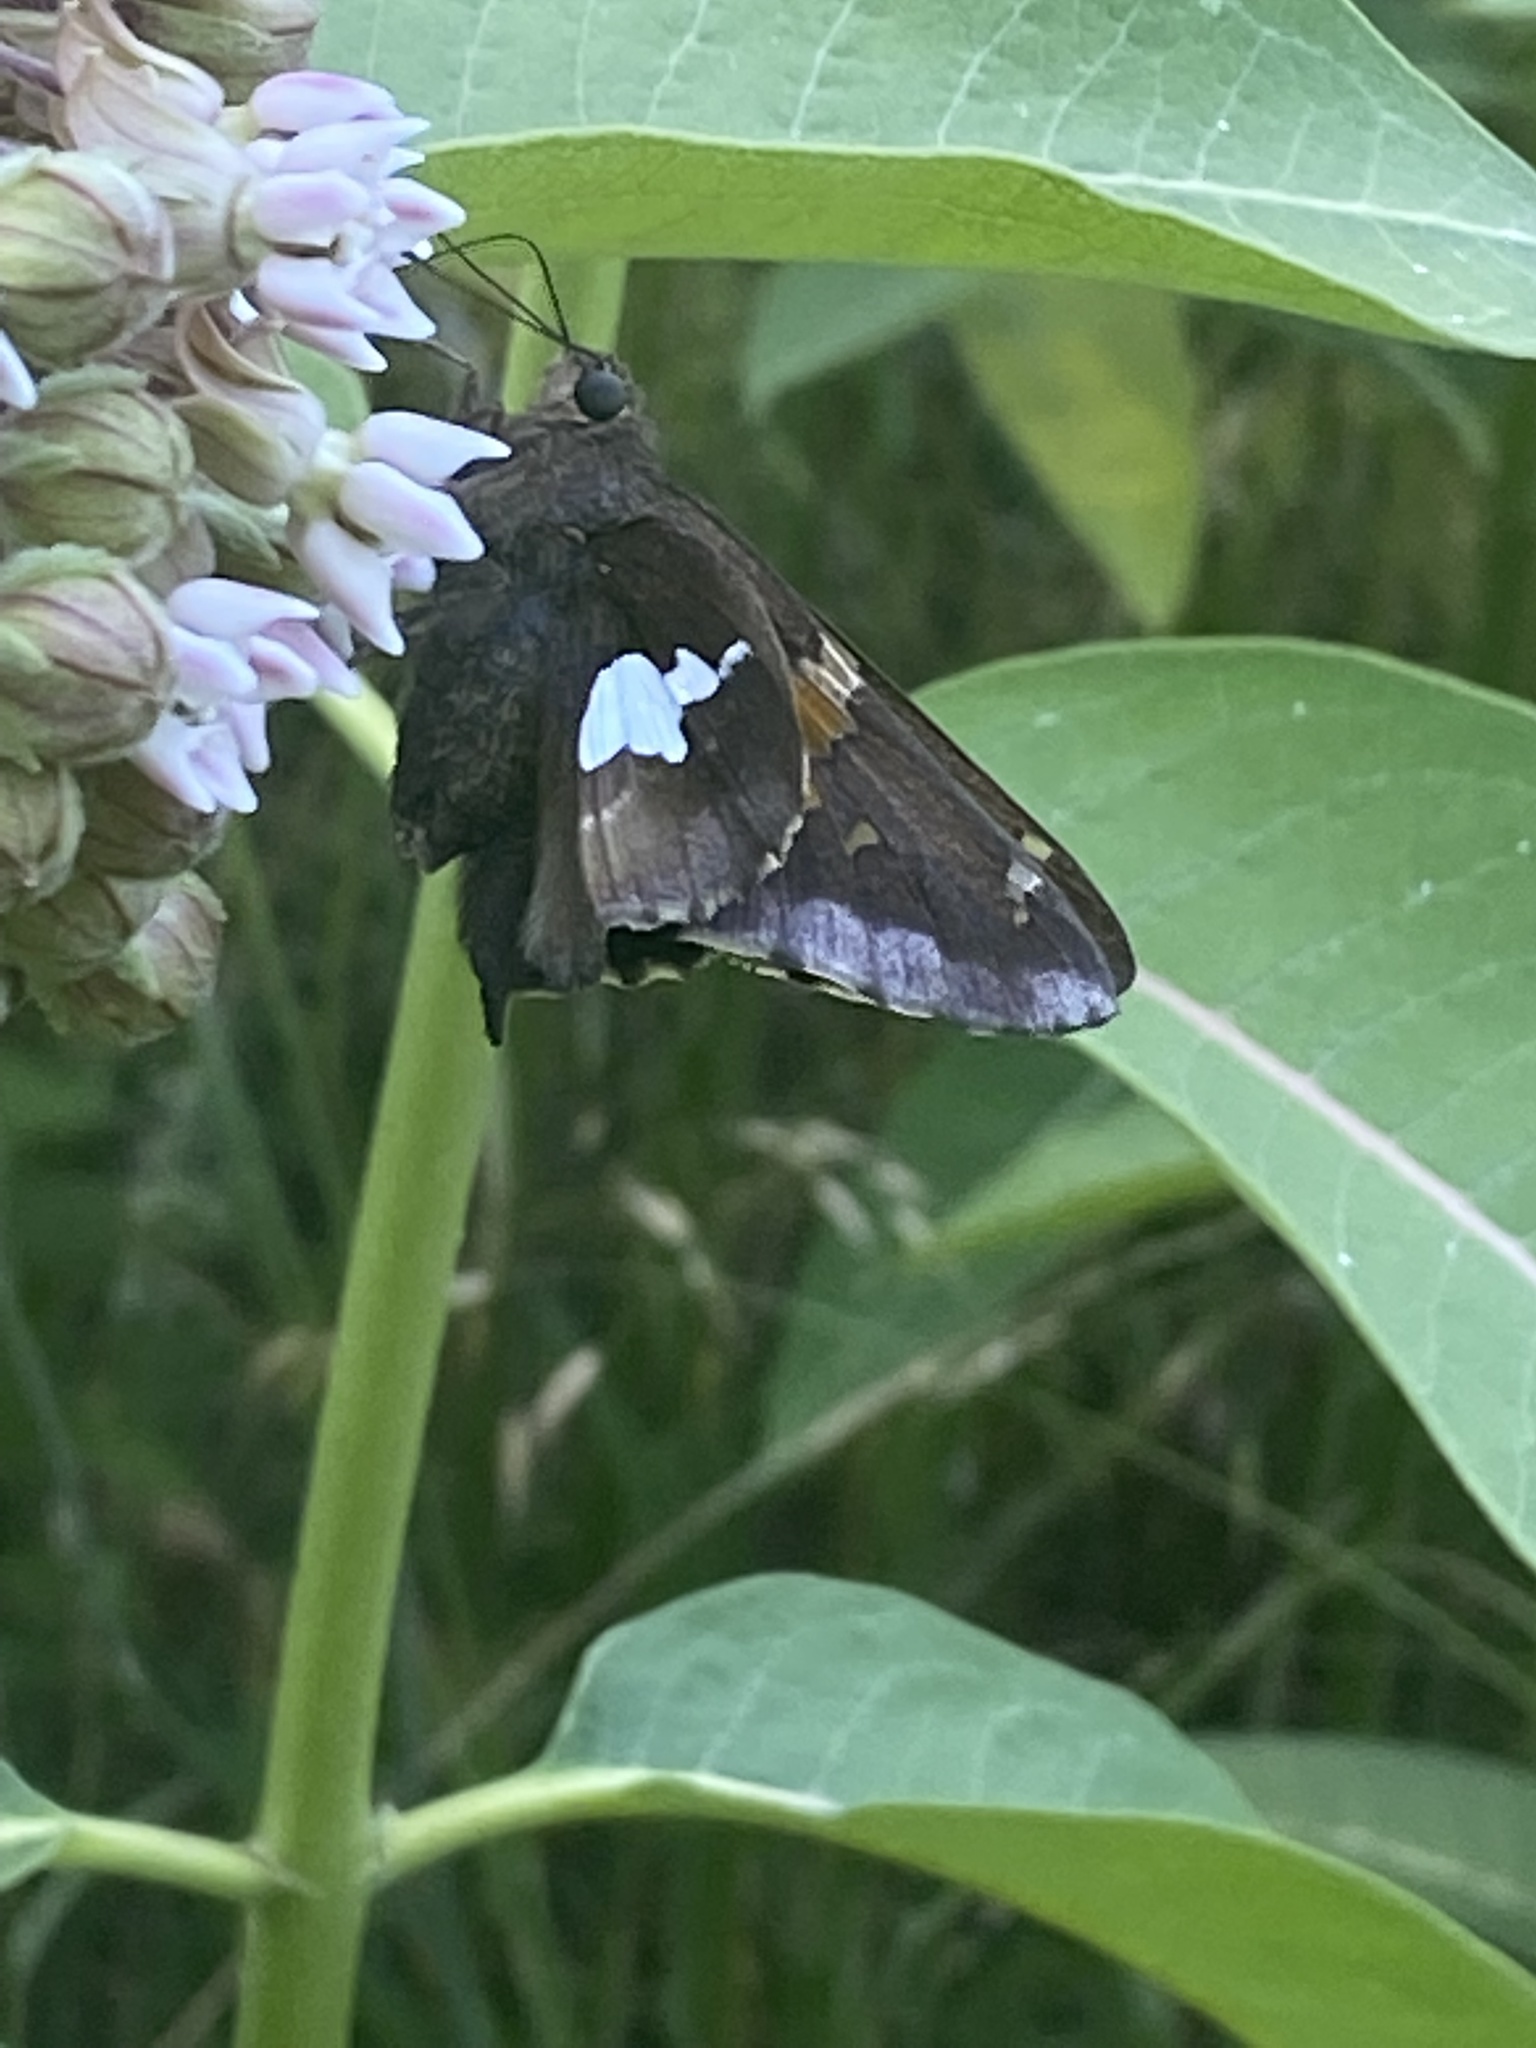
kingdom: Animalia
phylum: Arthropoda
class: Insecta
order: Lepidoptera
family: Hesperiidae
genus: Epargyreus
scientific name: Epargyreus clarus
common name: Silver-spotted skipper
